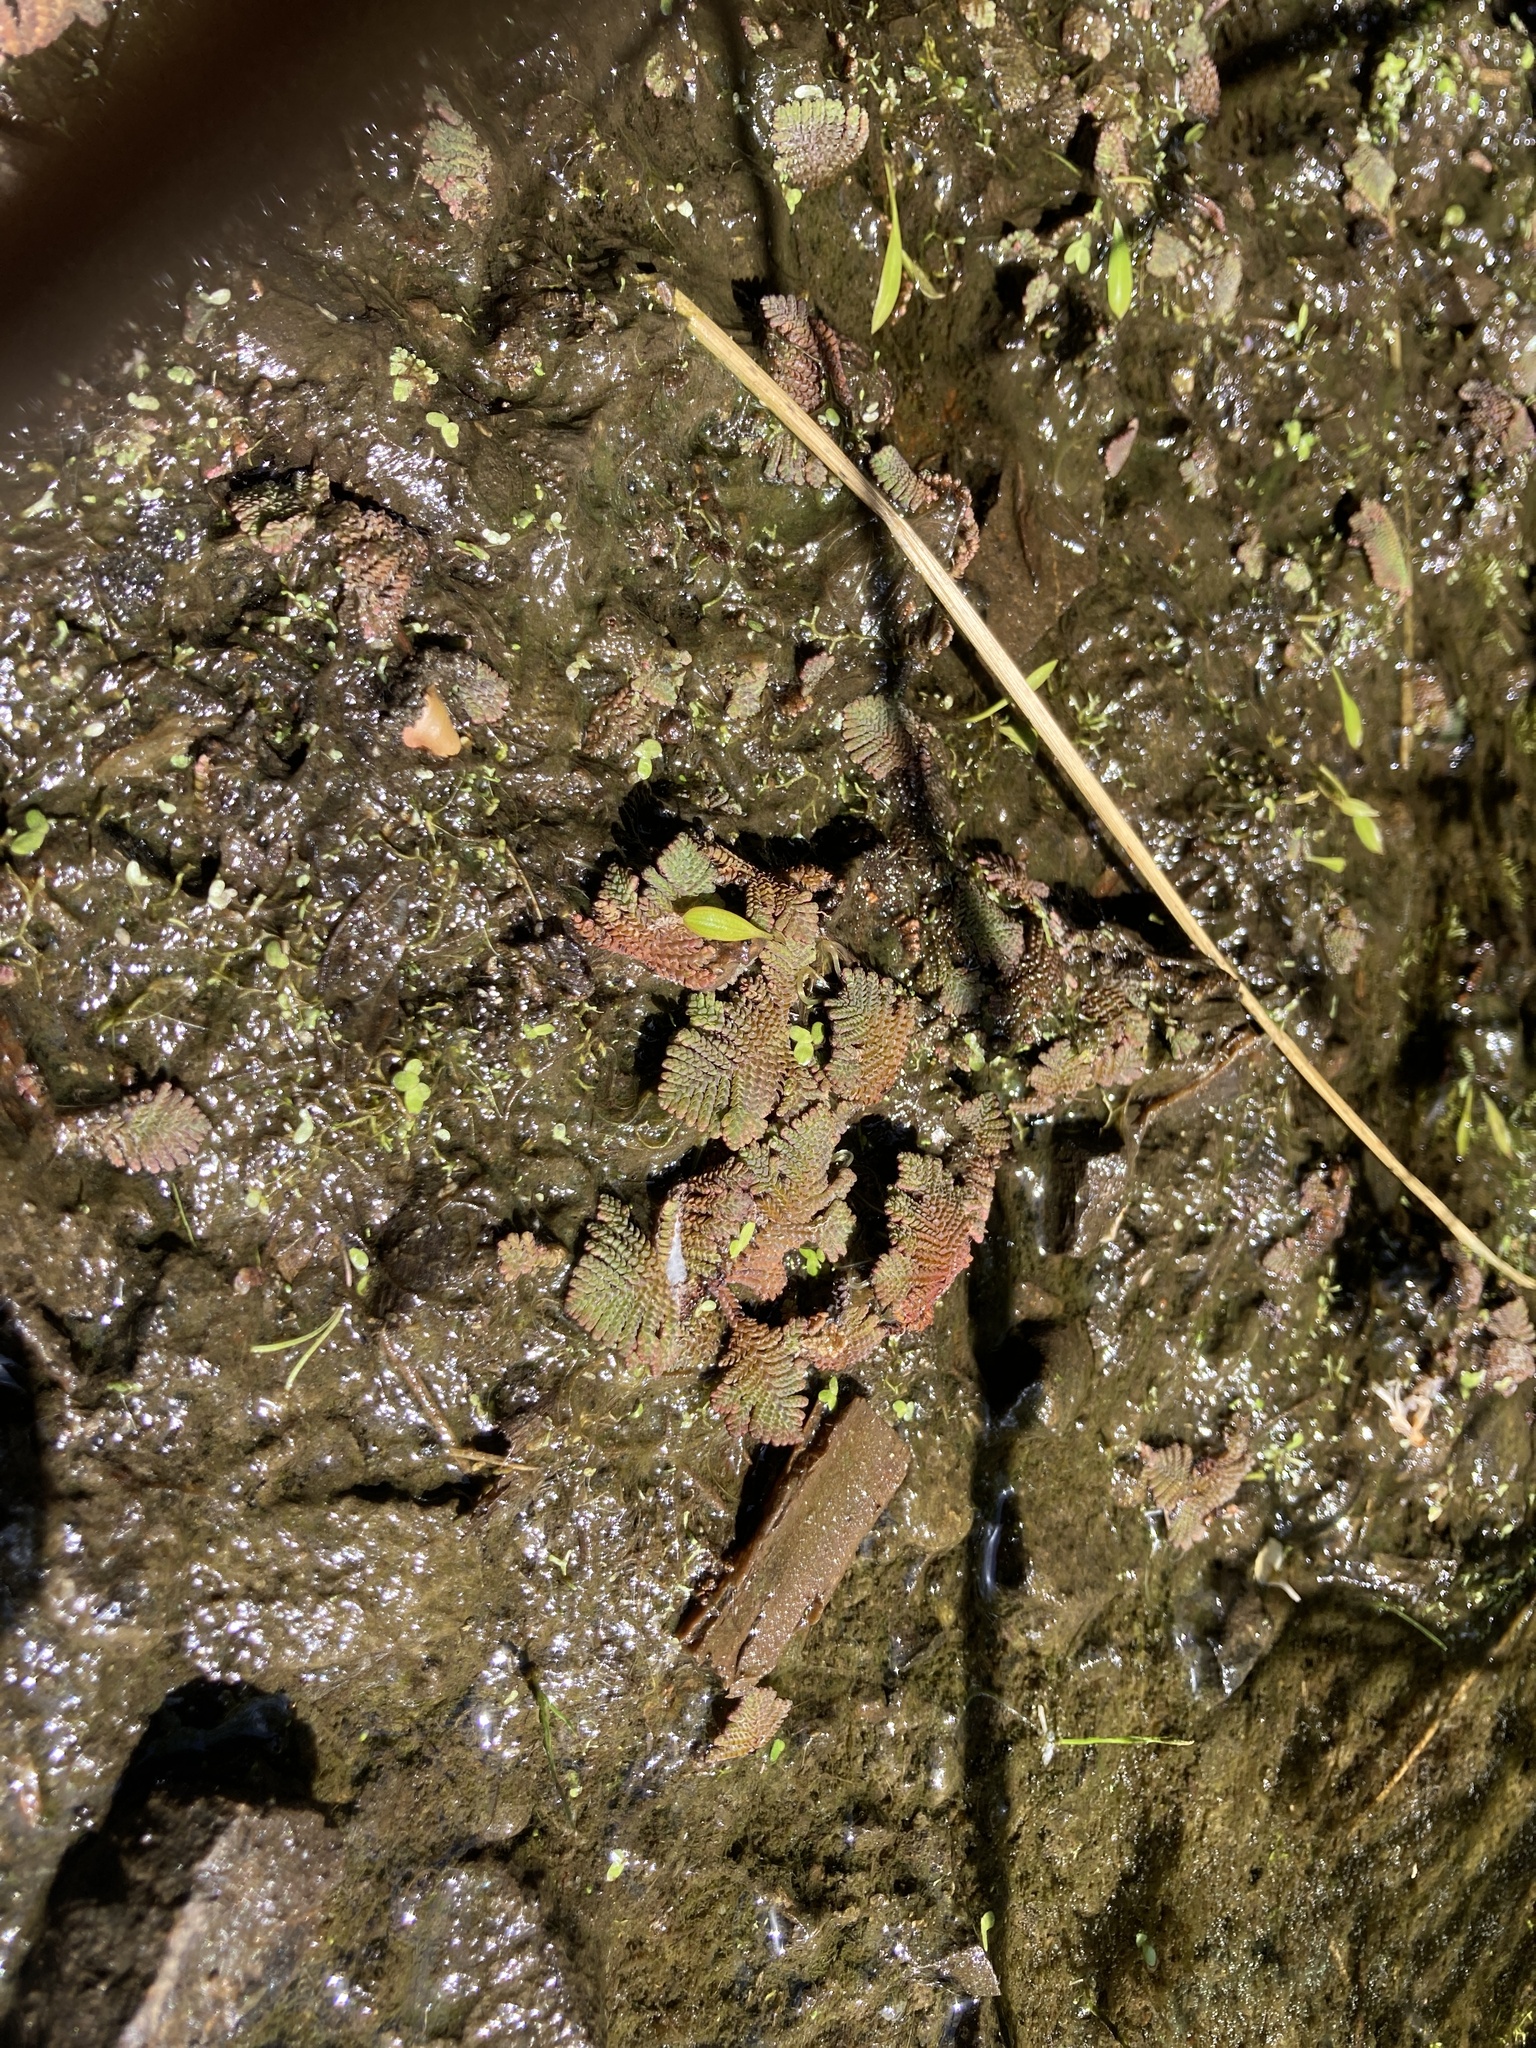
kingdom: Plantae
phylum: Tracheophyta
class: Polypodiopsida
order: Salviniales
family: Salviniaceae
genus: Azolla
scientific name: Azolla pinnata
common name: Ferny azolla
